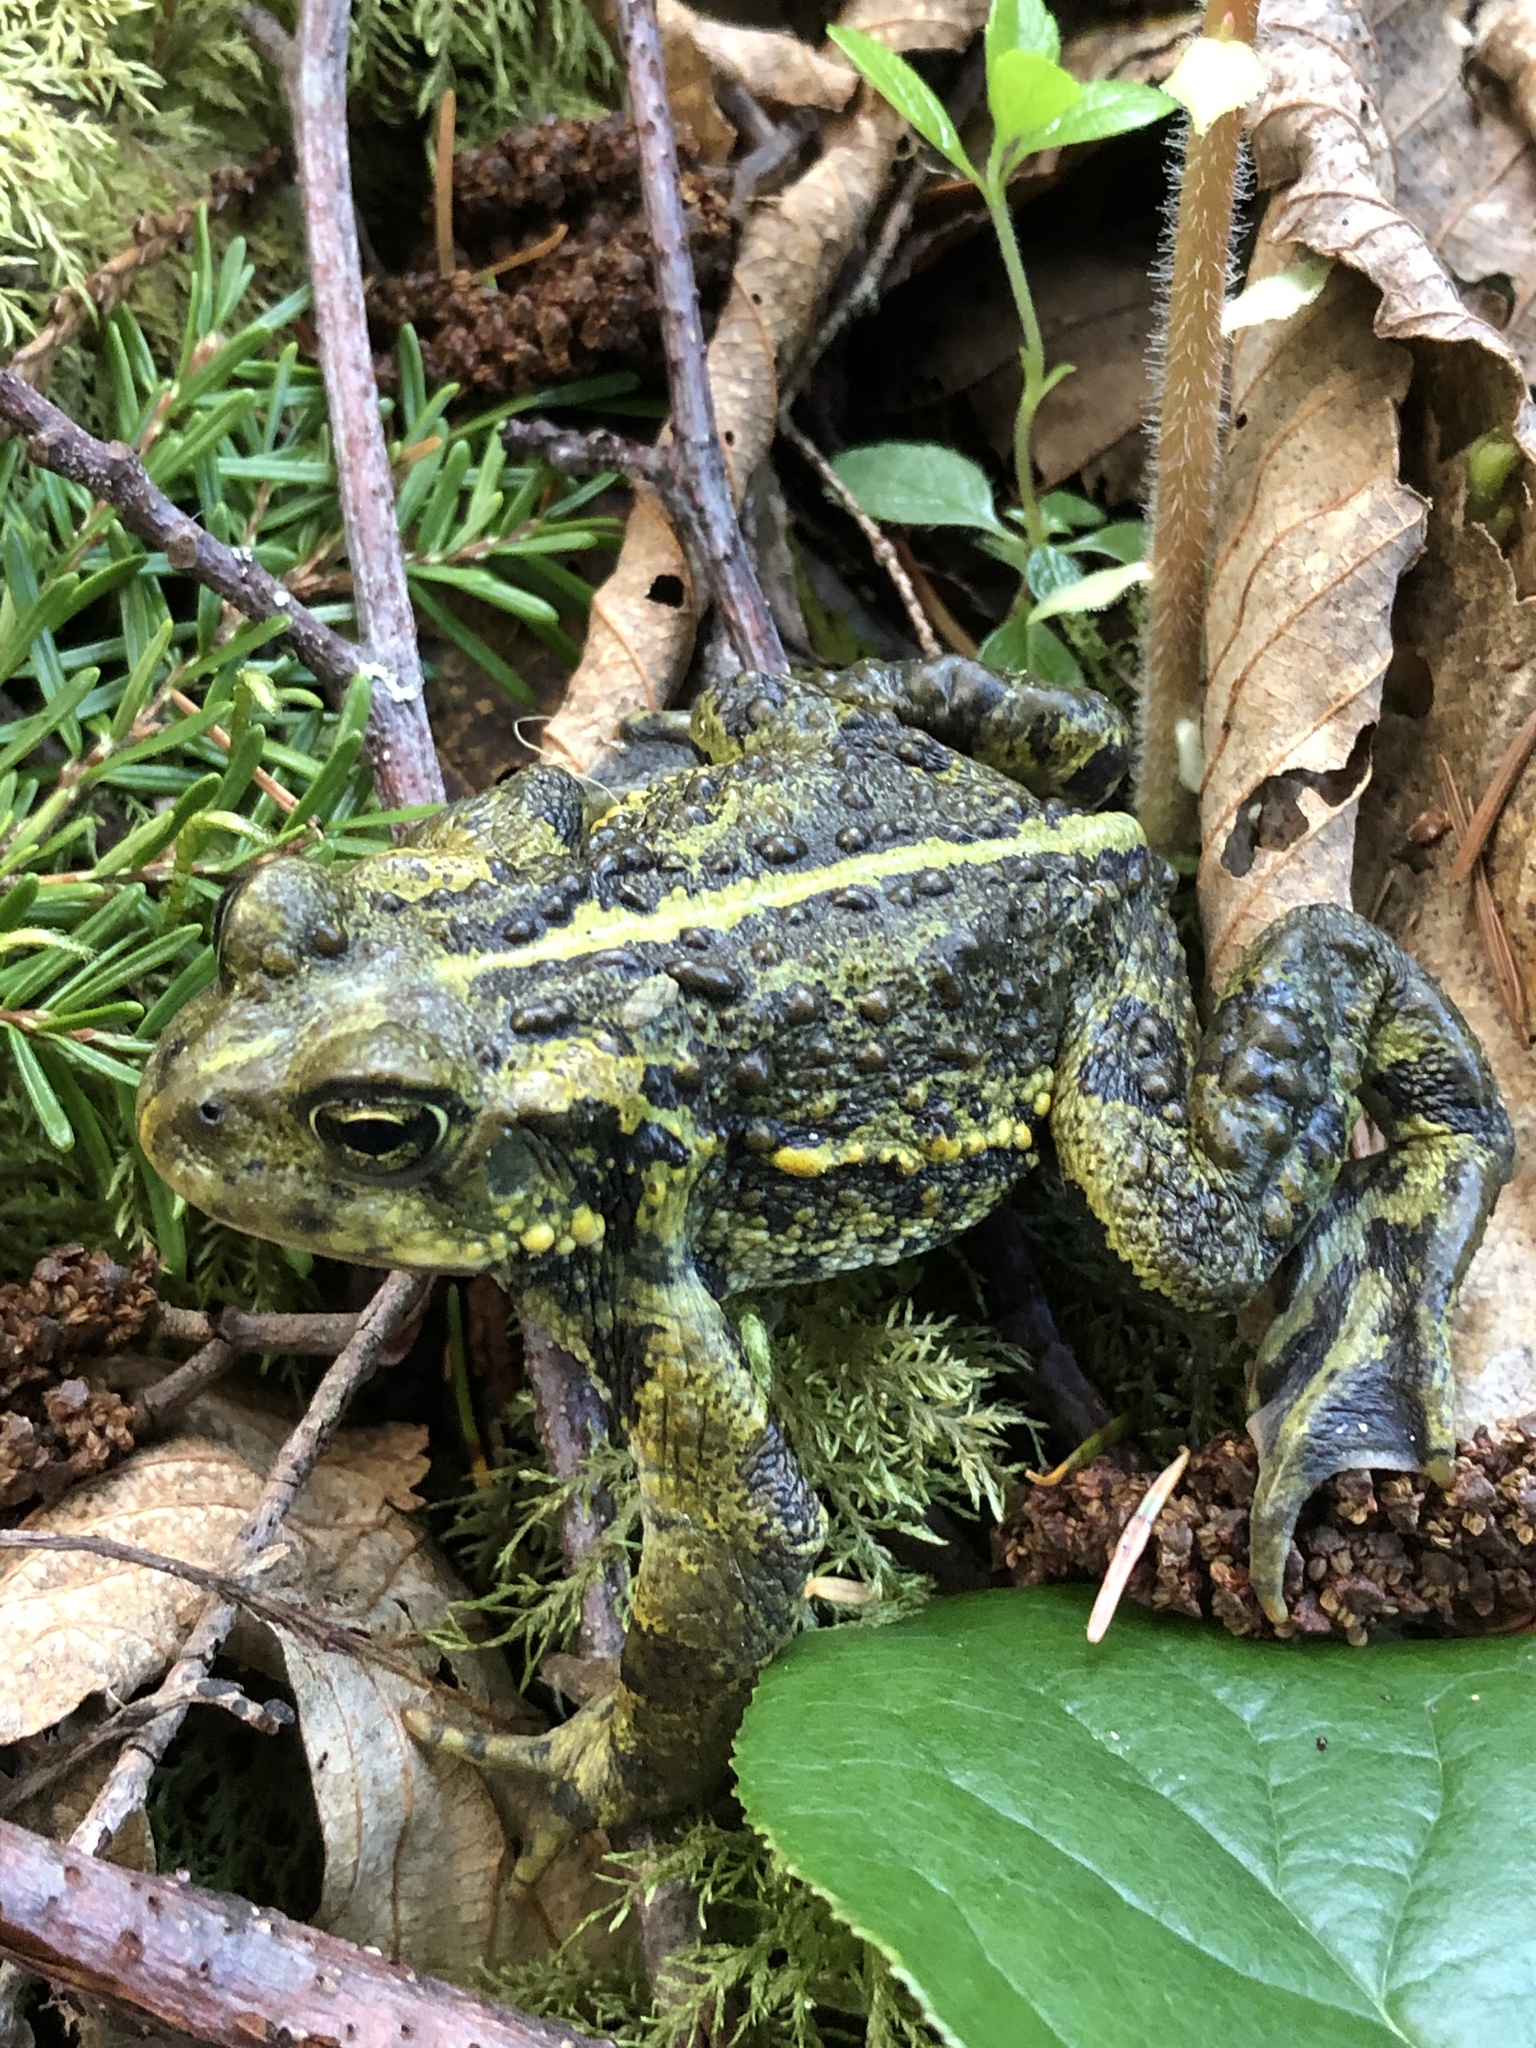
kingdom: Animalia
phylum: Chordata
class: Amphibia
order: Anura
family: Bufonidae
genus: Anaxyrus
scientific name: Anaxyrus boreas
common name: Western toad
